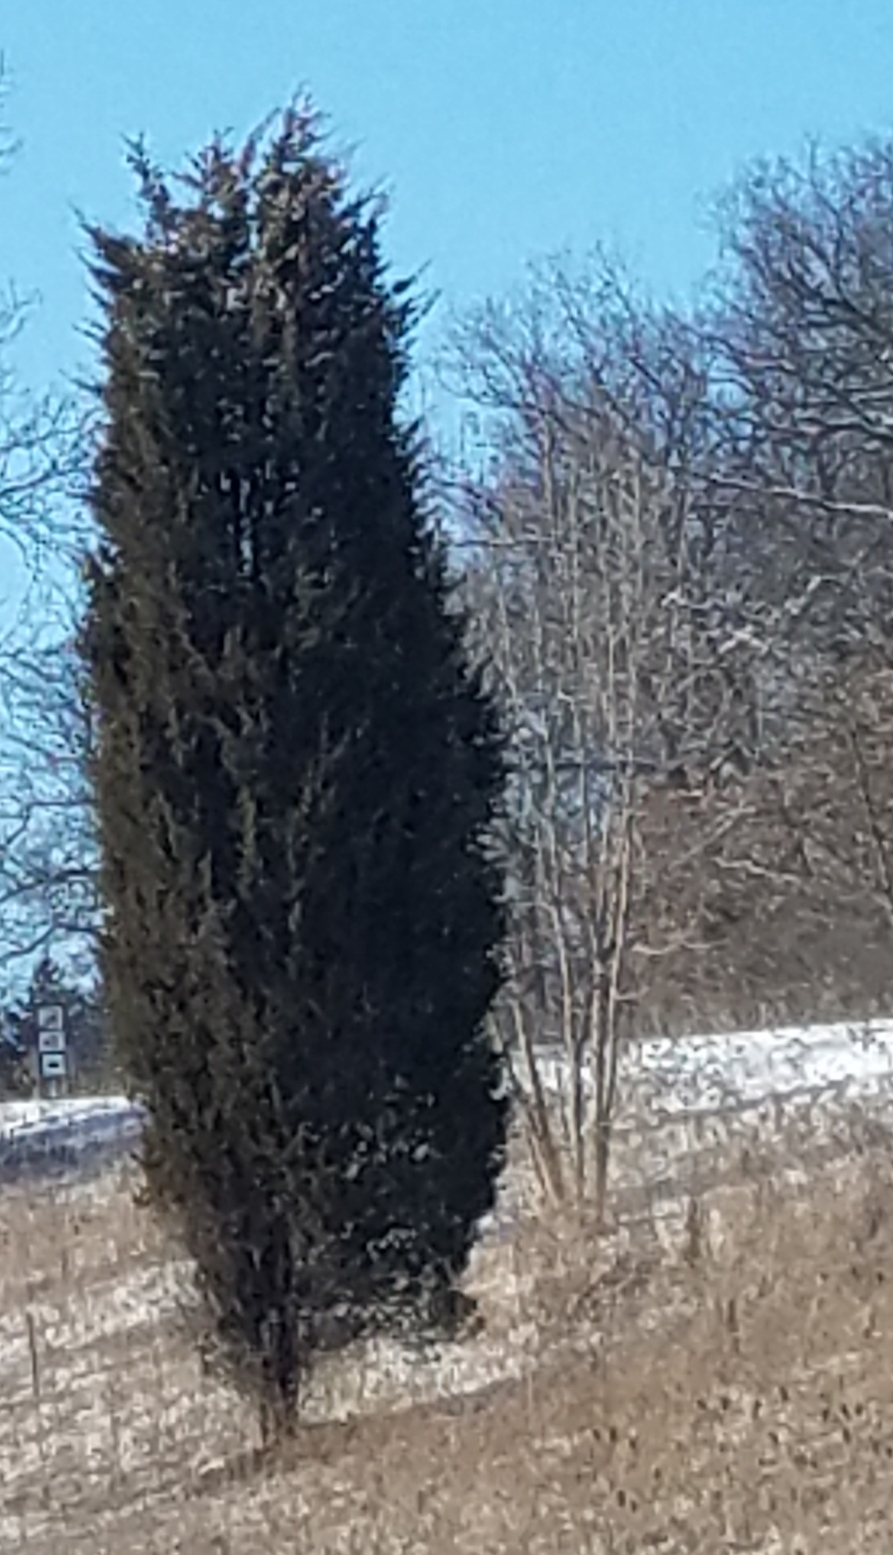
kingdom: Plantae
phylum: Tracheophyta
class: Pinopsida
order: Pinales
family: Cupressaceae
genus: Juniperus
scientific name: Juniperus virginiana
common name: Red juniper
